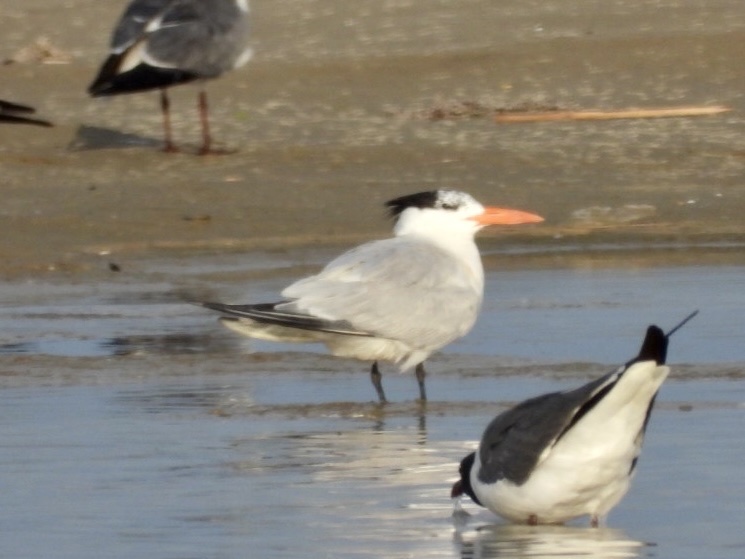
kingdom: Animalia
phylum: Chordata
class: Aves
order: Charadriiformes
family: Laridae
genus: Thalasseus
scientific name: Thalasseus maximus
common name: Royal tern
